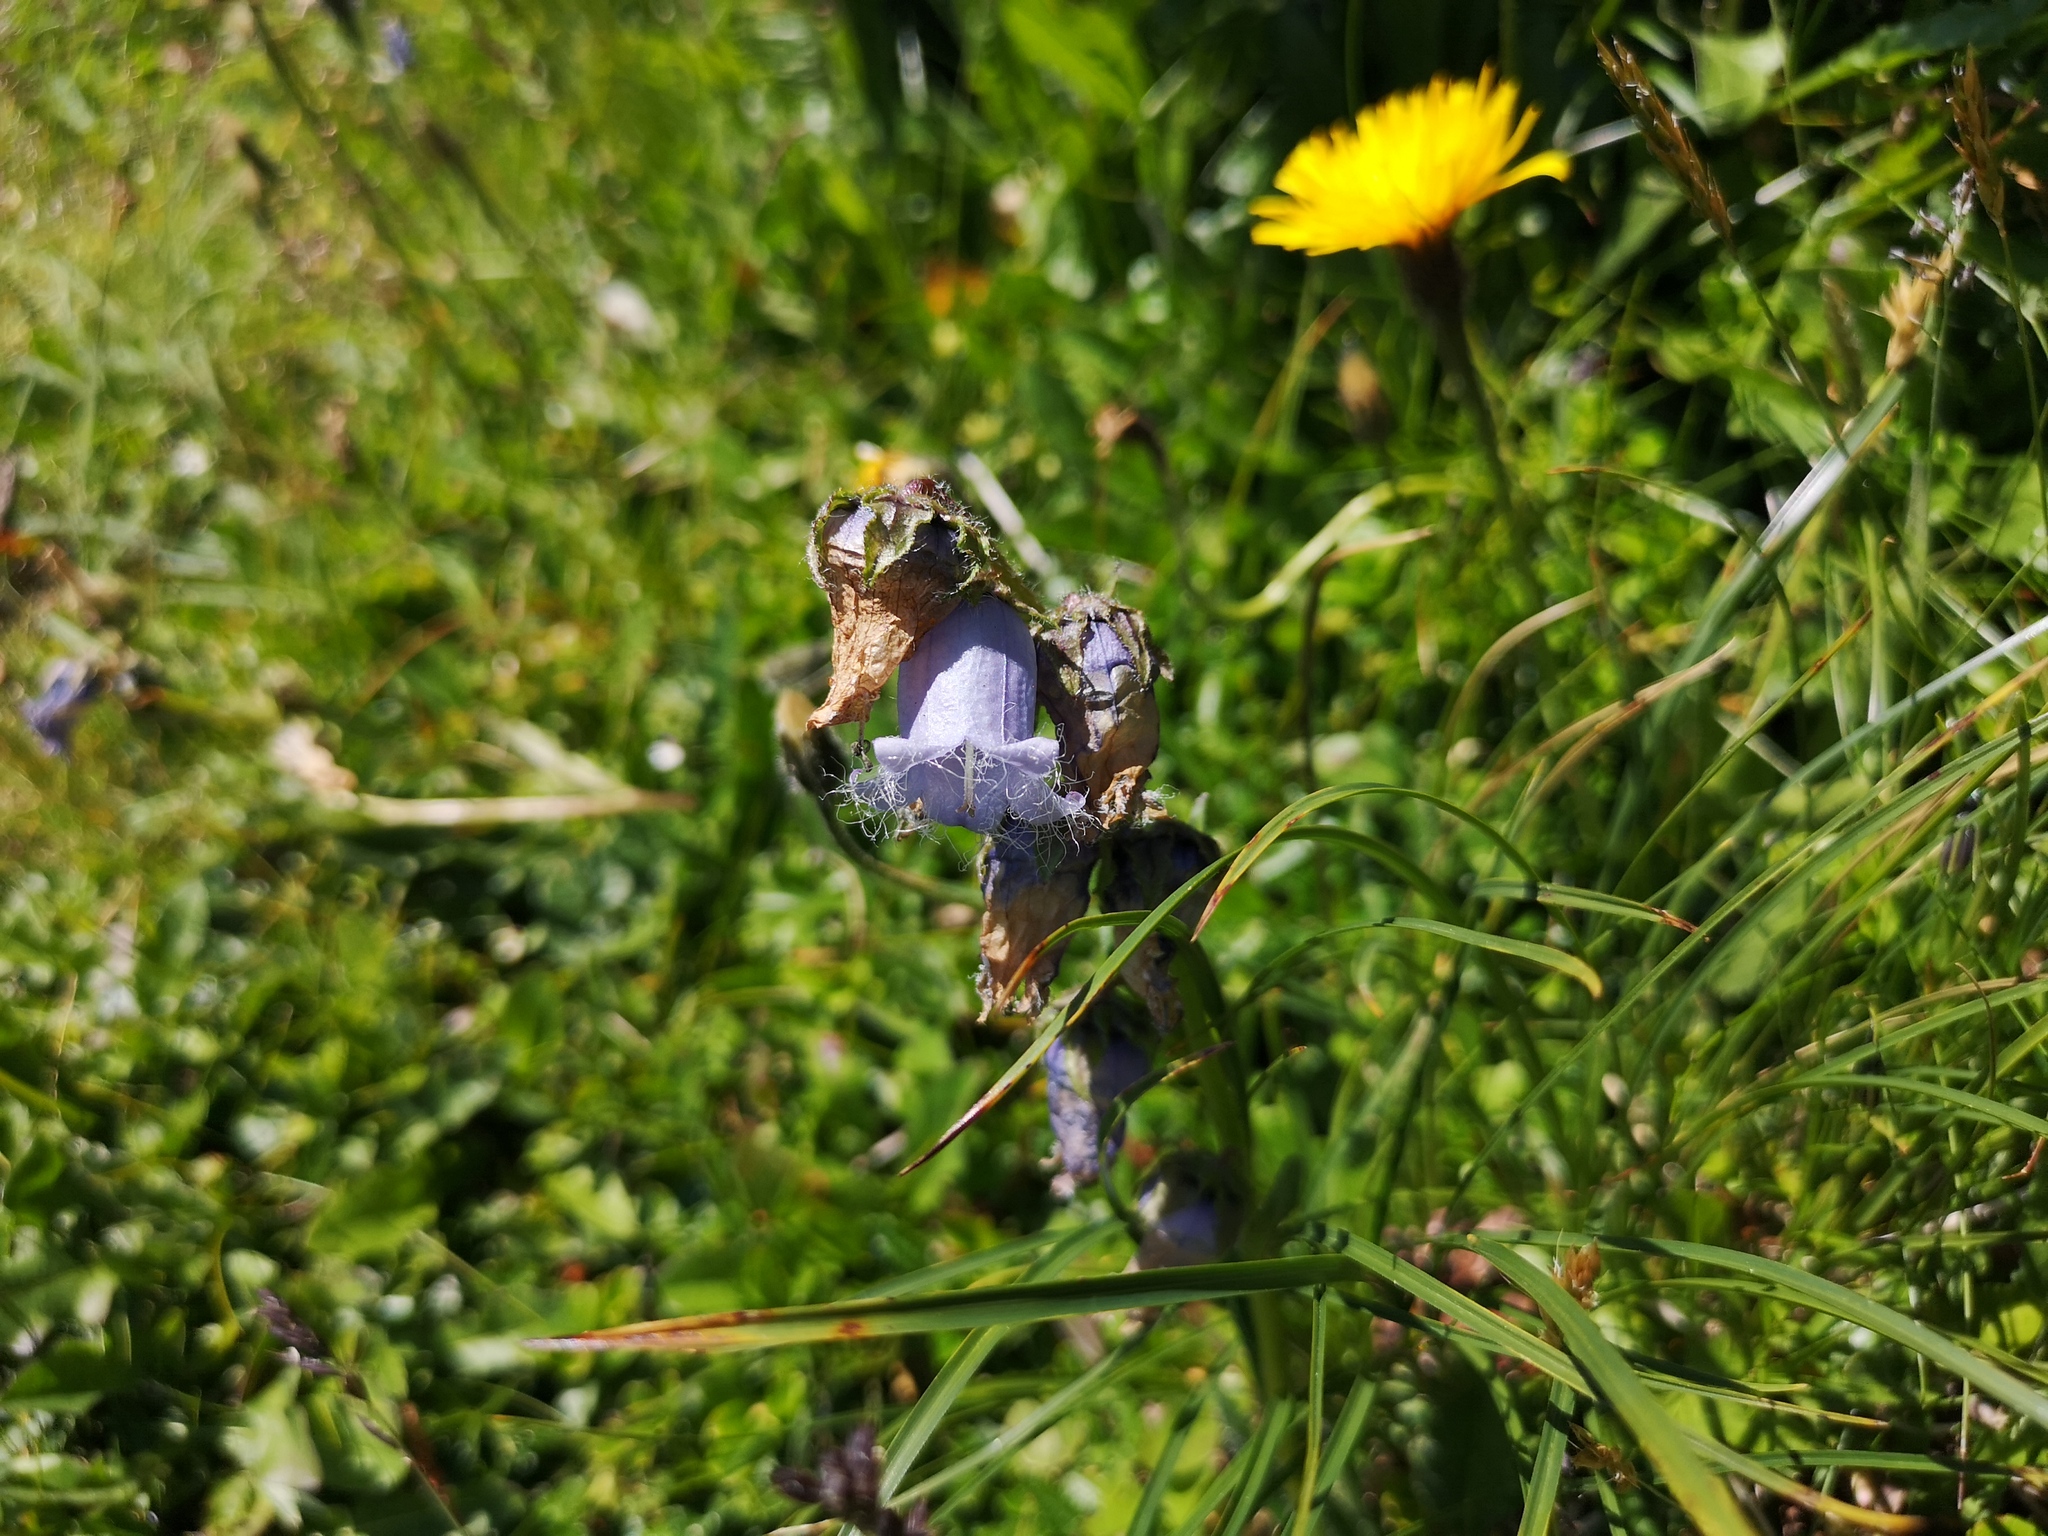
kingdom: Plantae
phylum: Tracheophyta
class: Magnoliopsida
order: Asterales
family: Campanulaceae
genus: Campanula
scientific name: Campanula barbata
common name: Bearded bellflower
